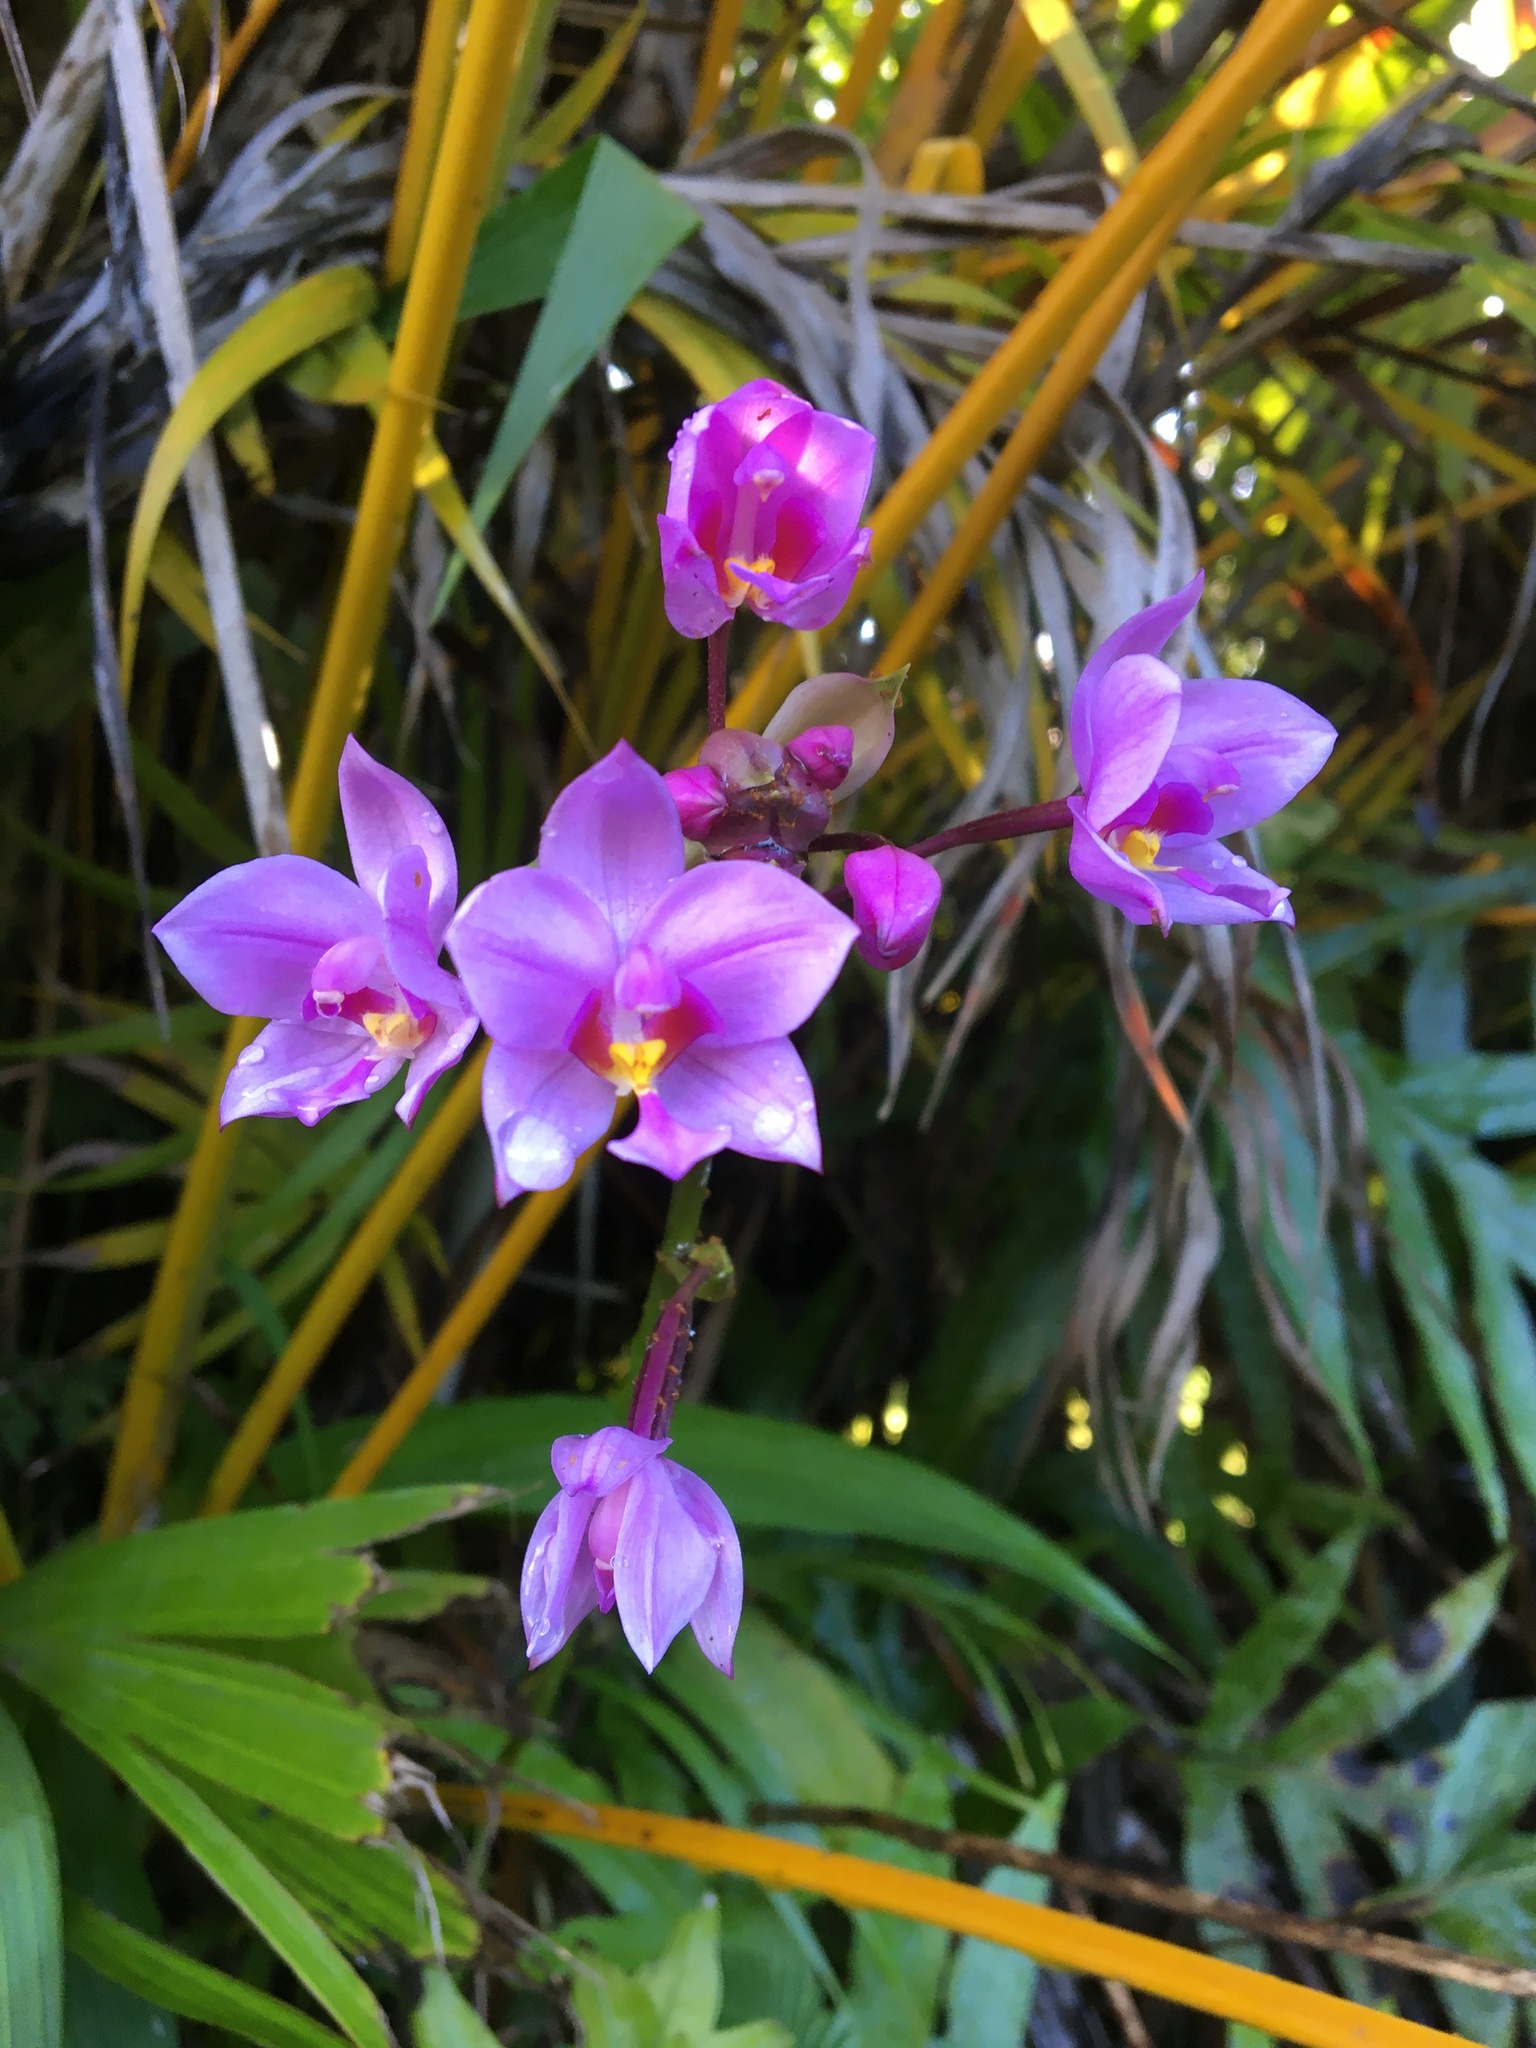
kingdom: Plantae
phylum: Tracheophyta
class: Liliopsida
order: Asparagales
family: Orchidaceae
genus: Spathoglottis
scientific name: Spathoglottis plicata
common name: Philippine ground orchid
